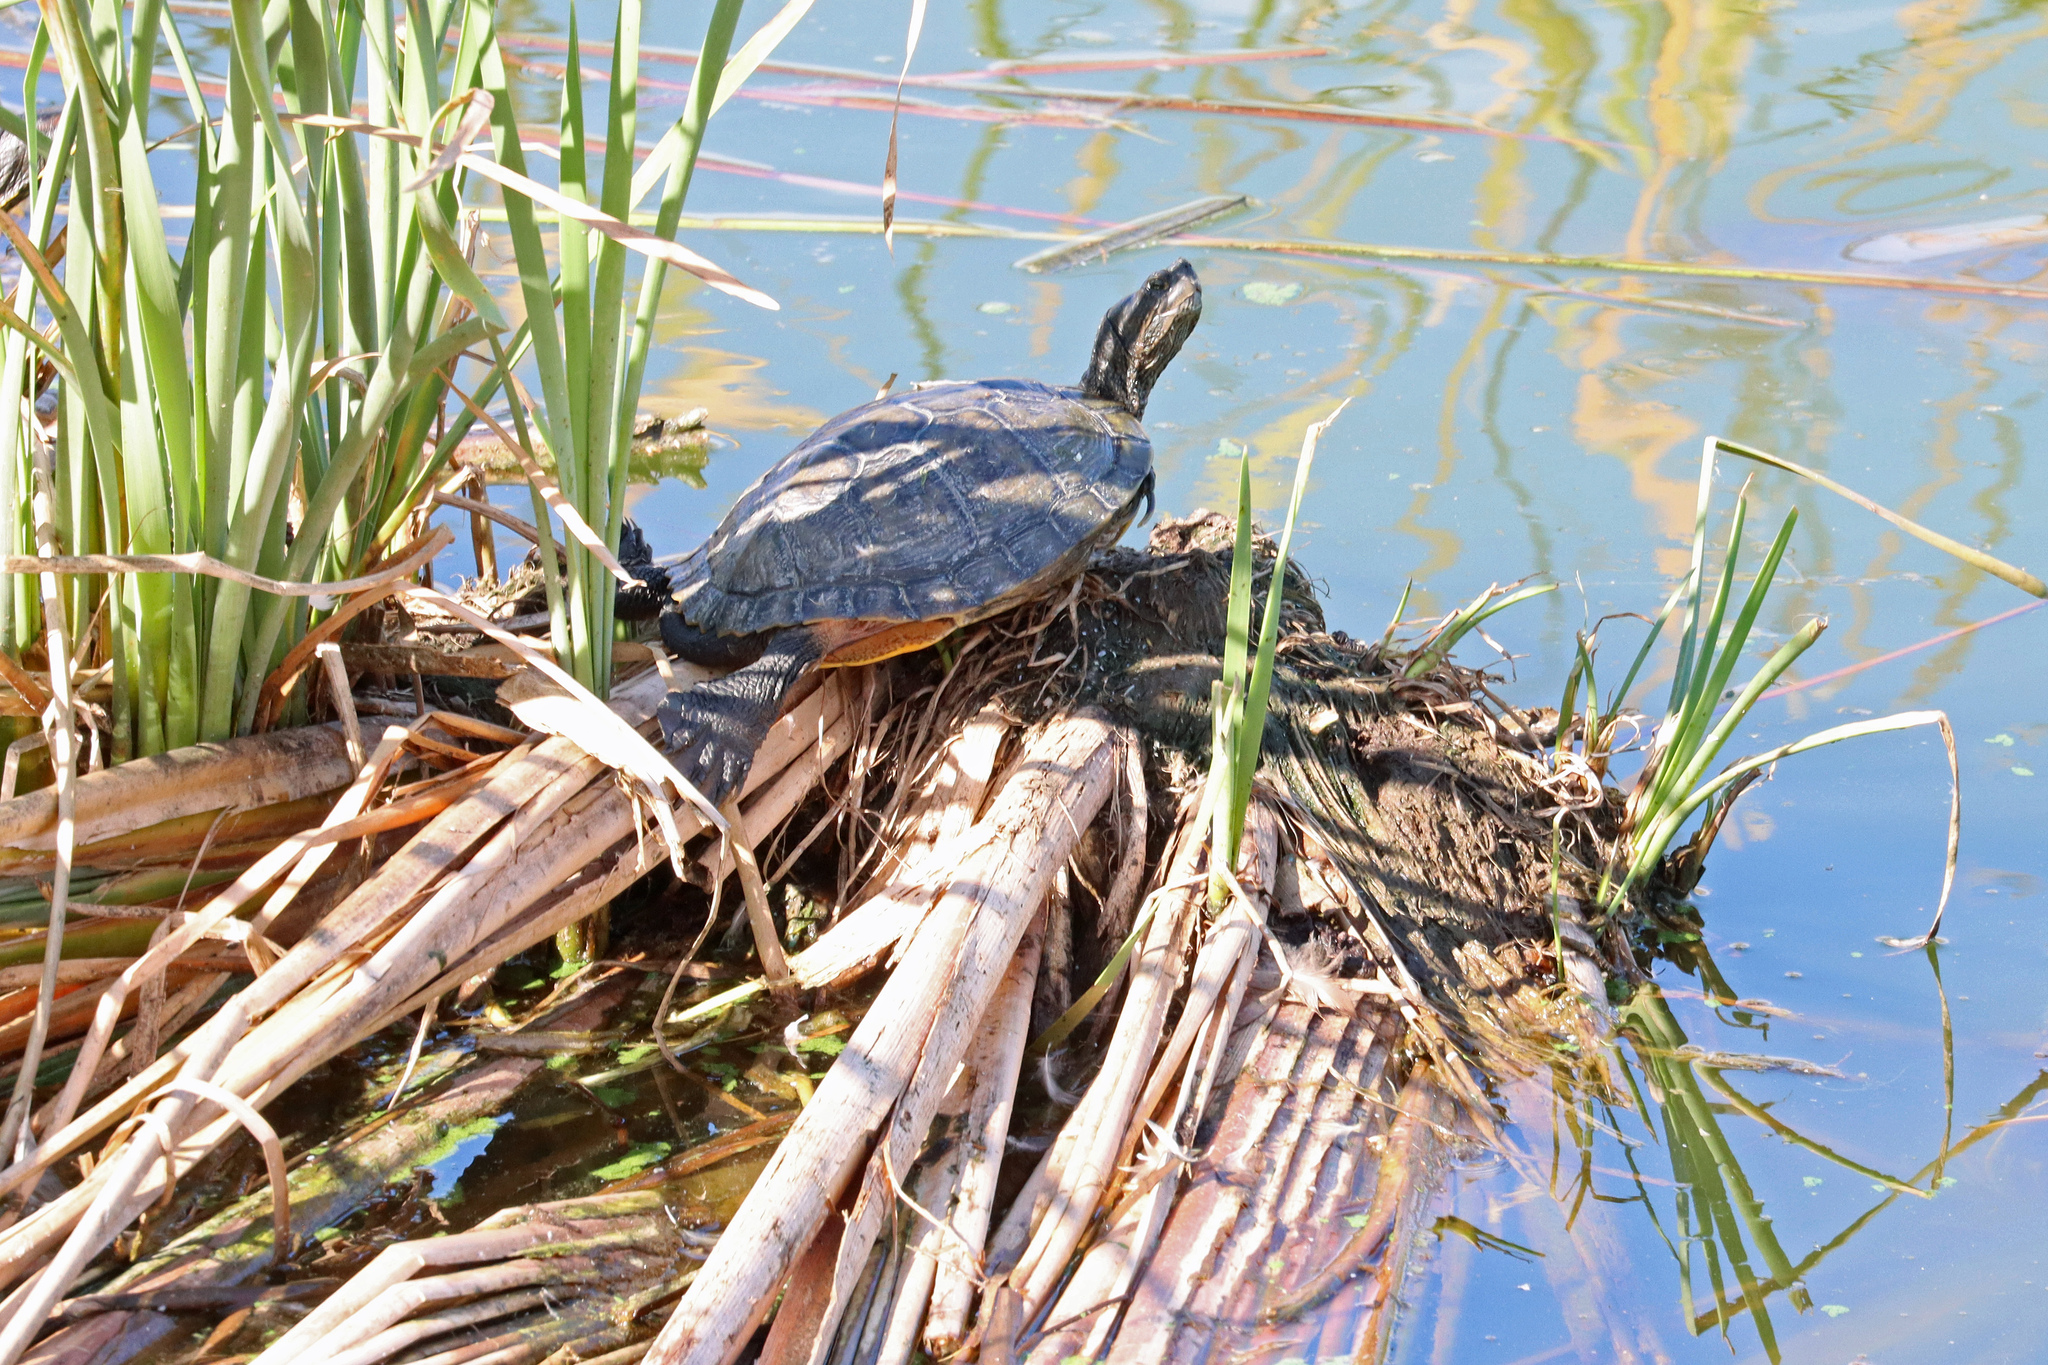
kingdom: Animalia
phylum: Chordata
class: Testudines
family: Emydidae
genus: Trachemys
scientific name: Trachemys scripta
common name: Slider
